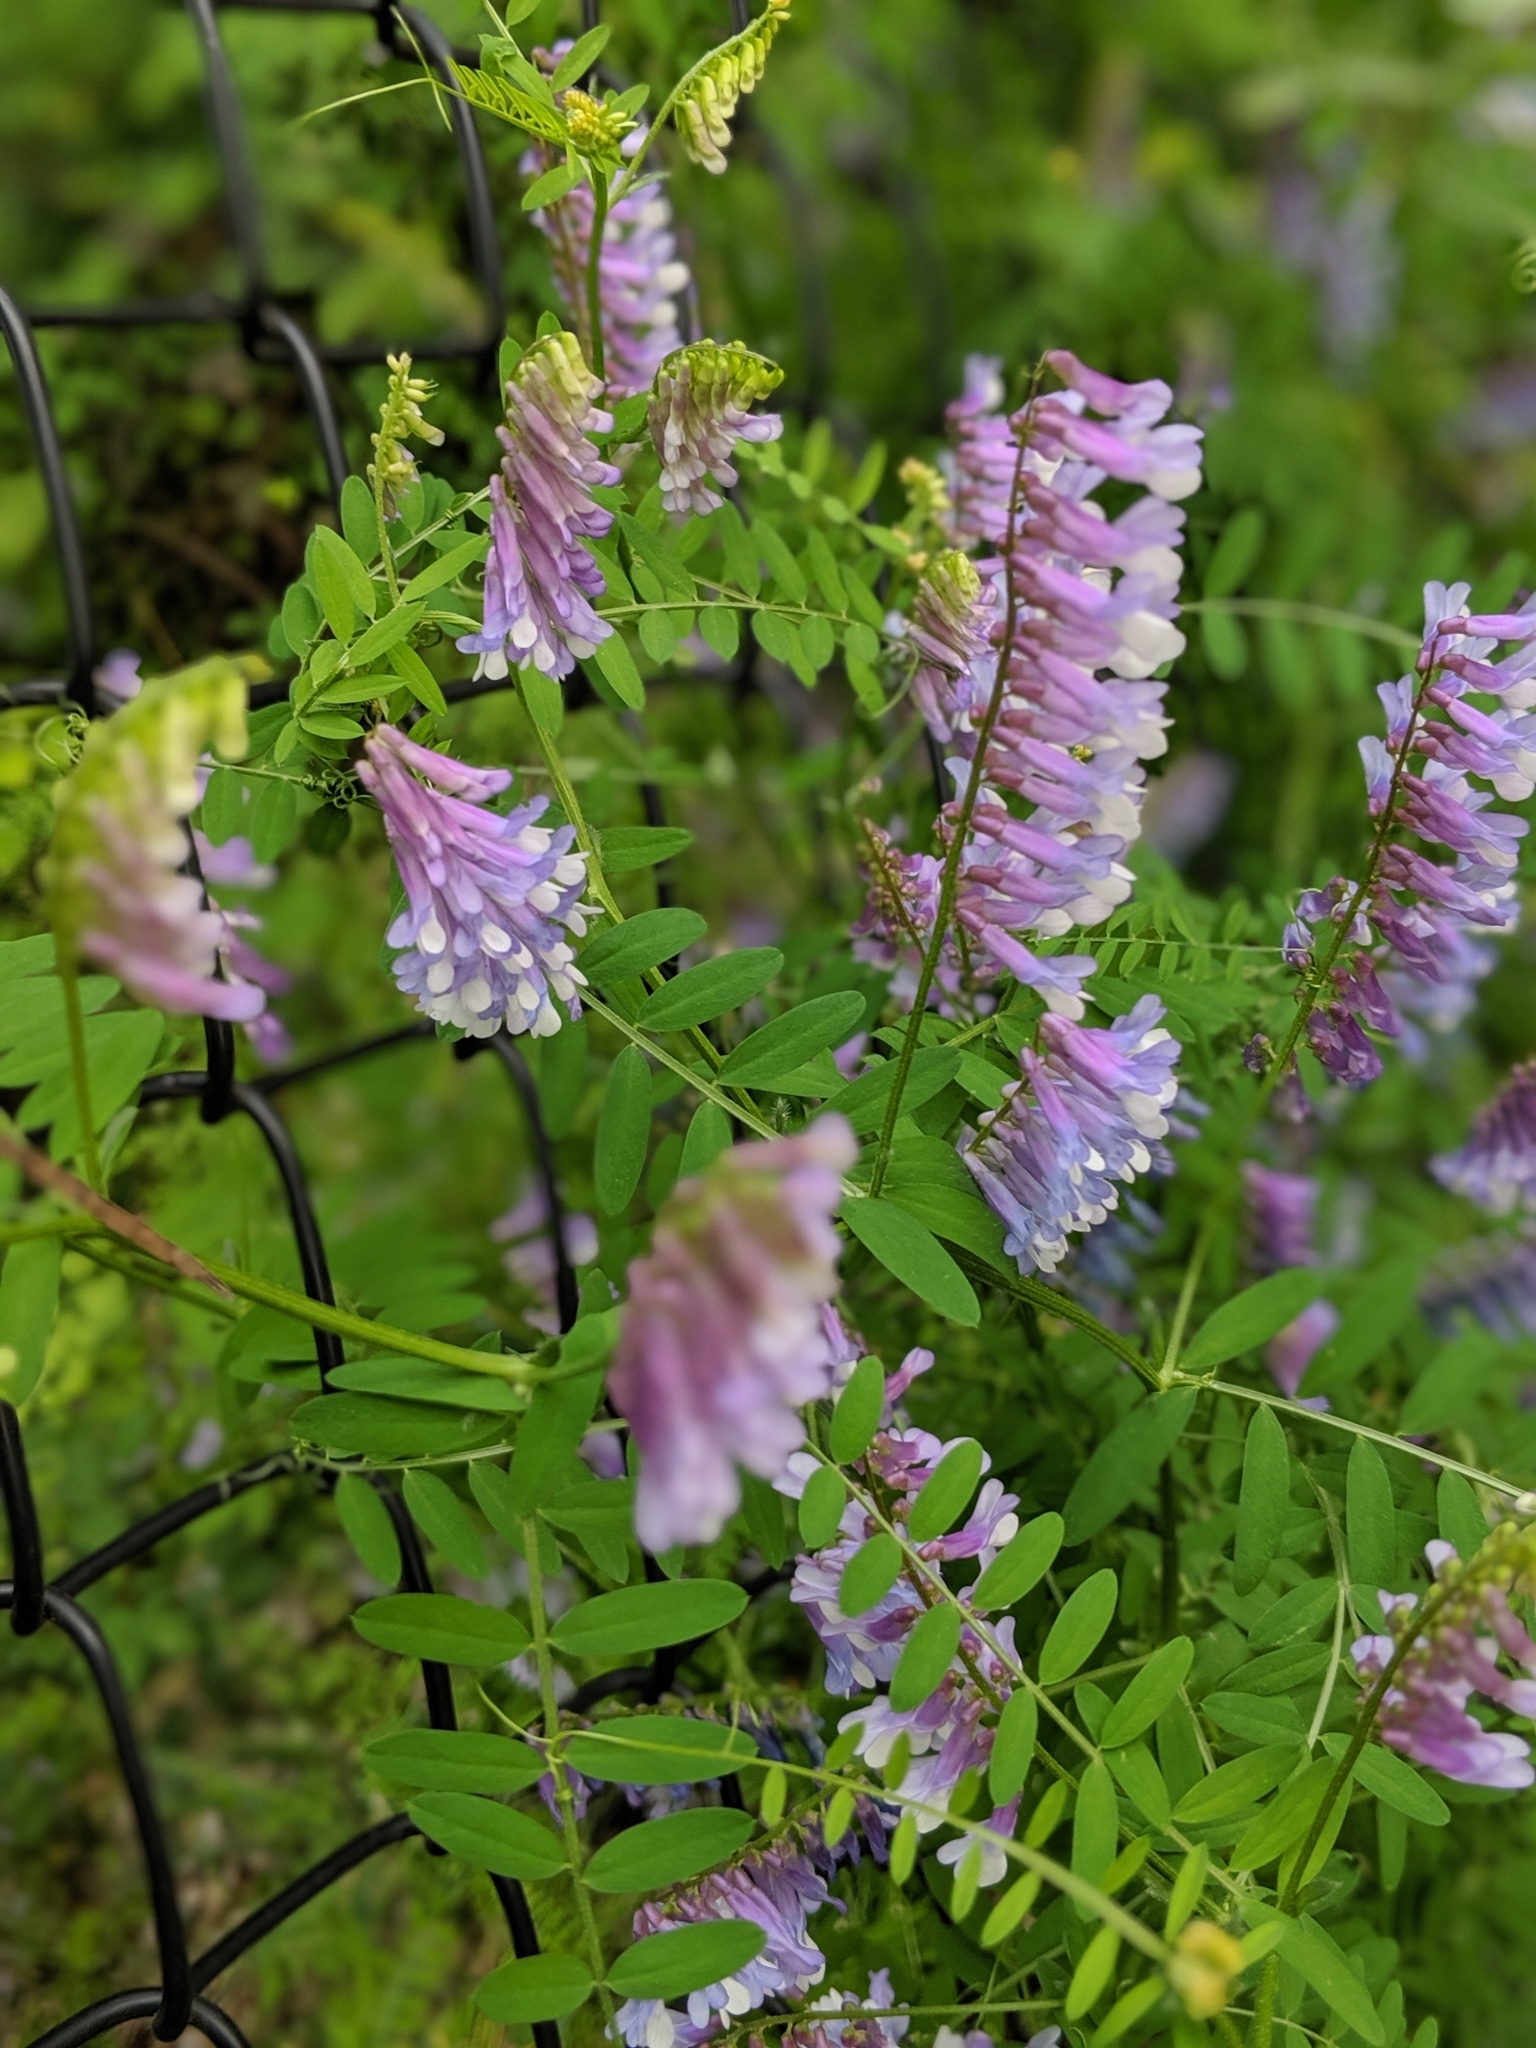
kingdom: Plantae
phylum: Tracheophyta
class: Magnoliopsida
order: Fabales
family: Fabaceae
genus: Vicia
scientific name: Vicia villosa
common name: Fodder vetch
